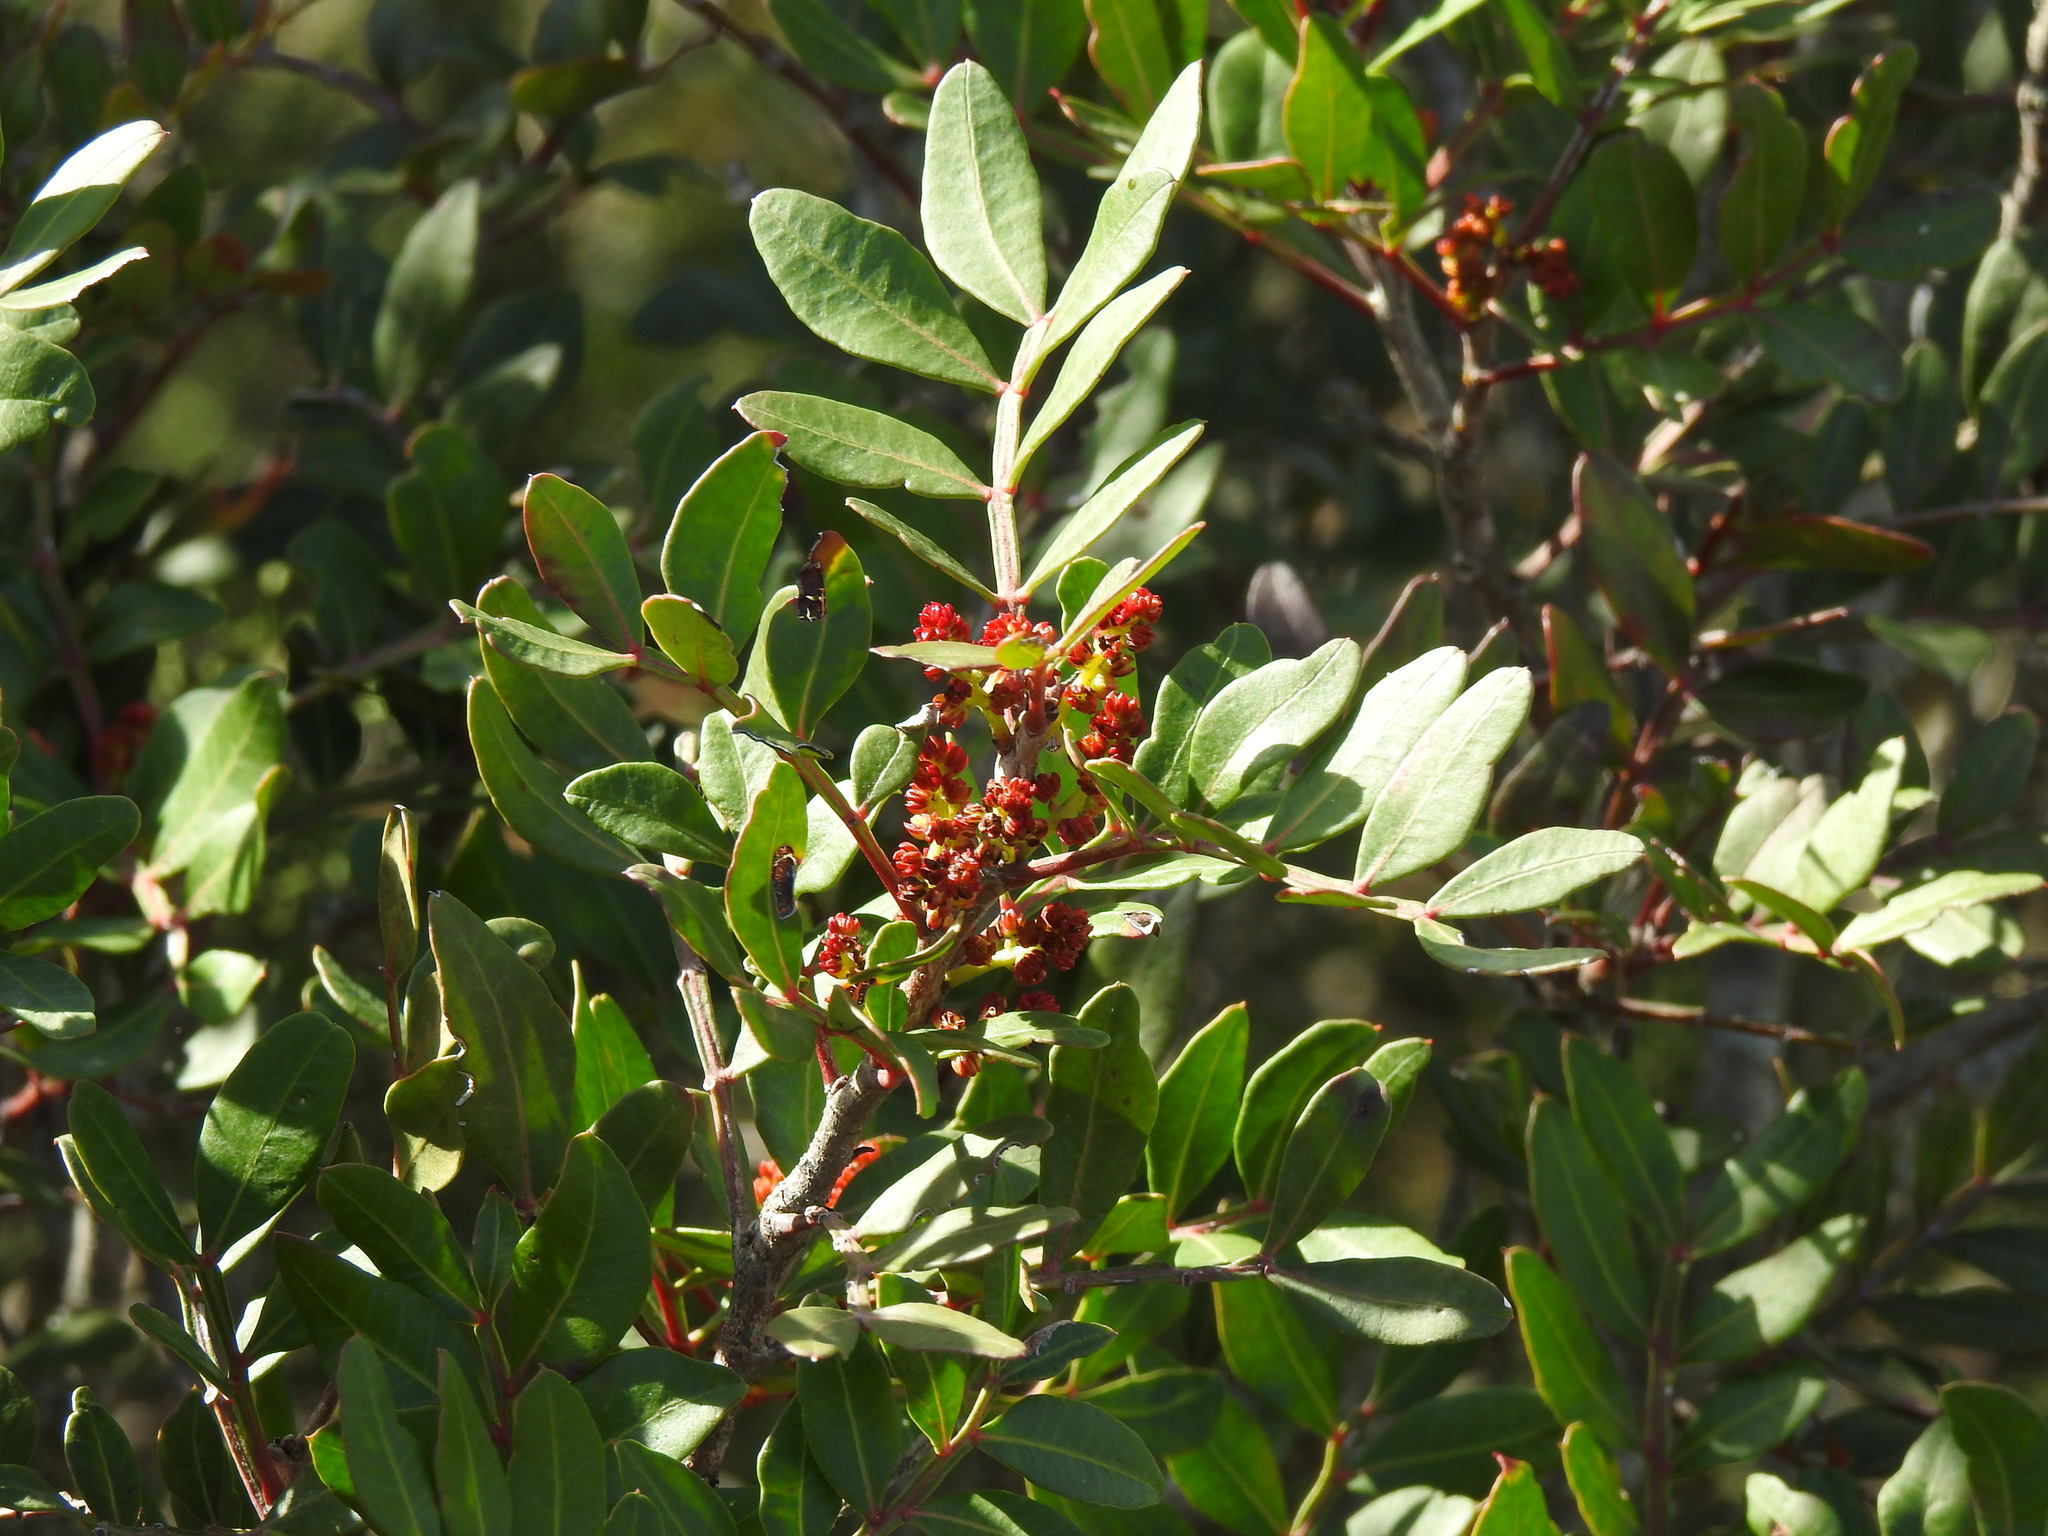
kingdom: Plantae
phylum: Tracheophyta
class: Magnoliopsida
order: Sapindales
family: Anacardiaceae
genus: Pistacia
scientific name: Pistacia lentiscus
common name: Lentisk
